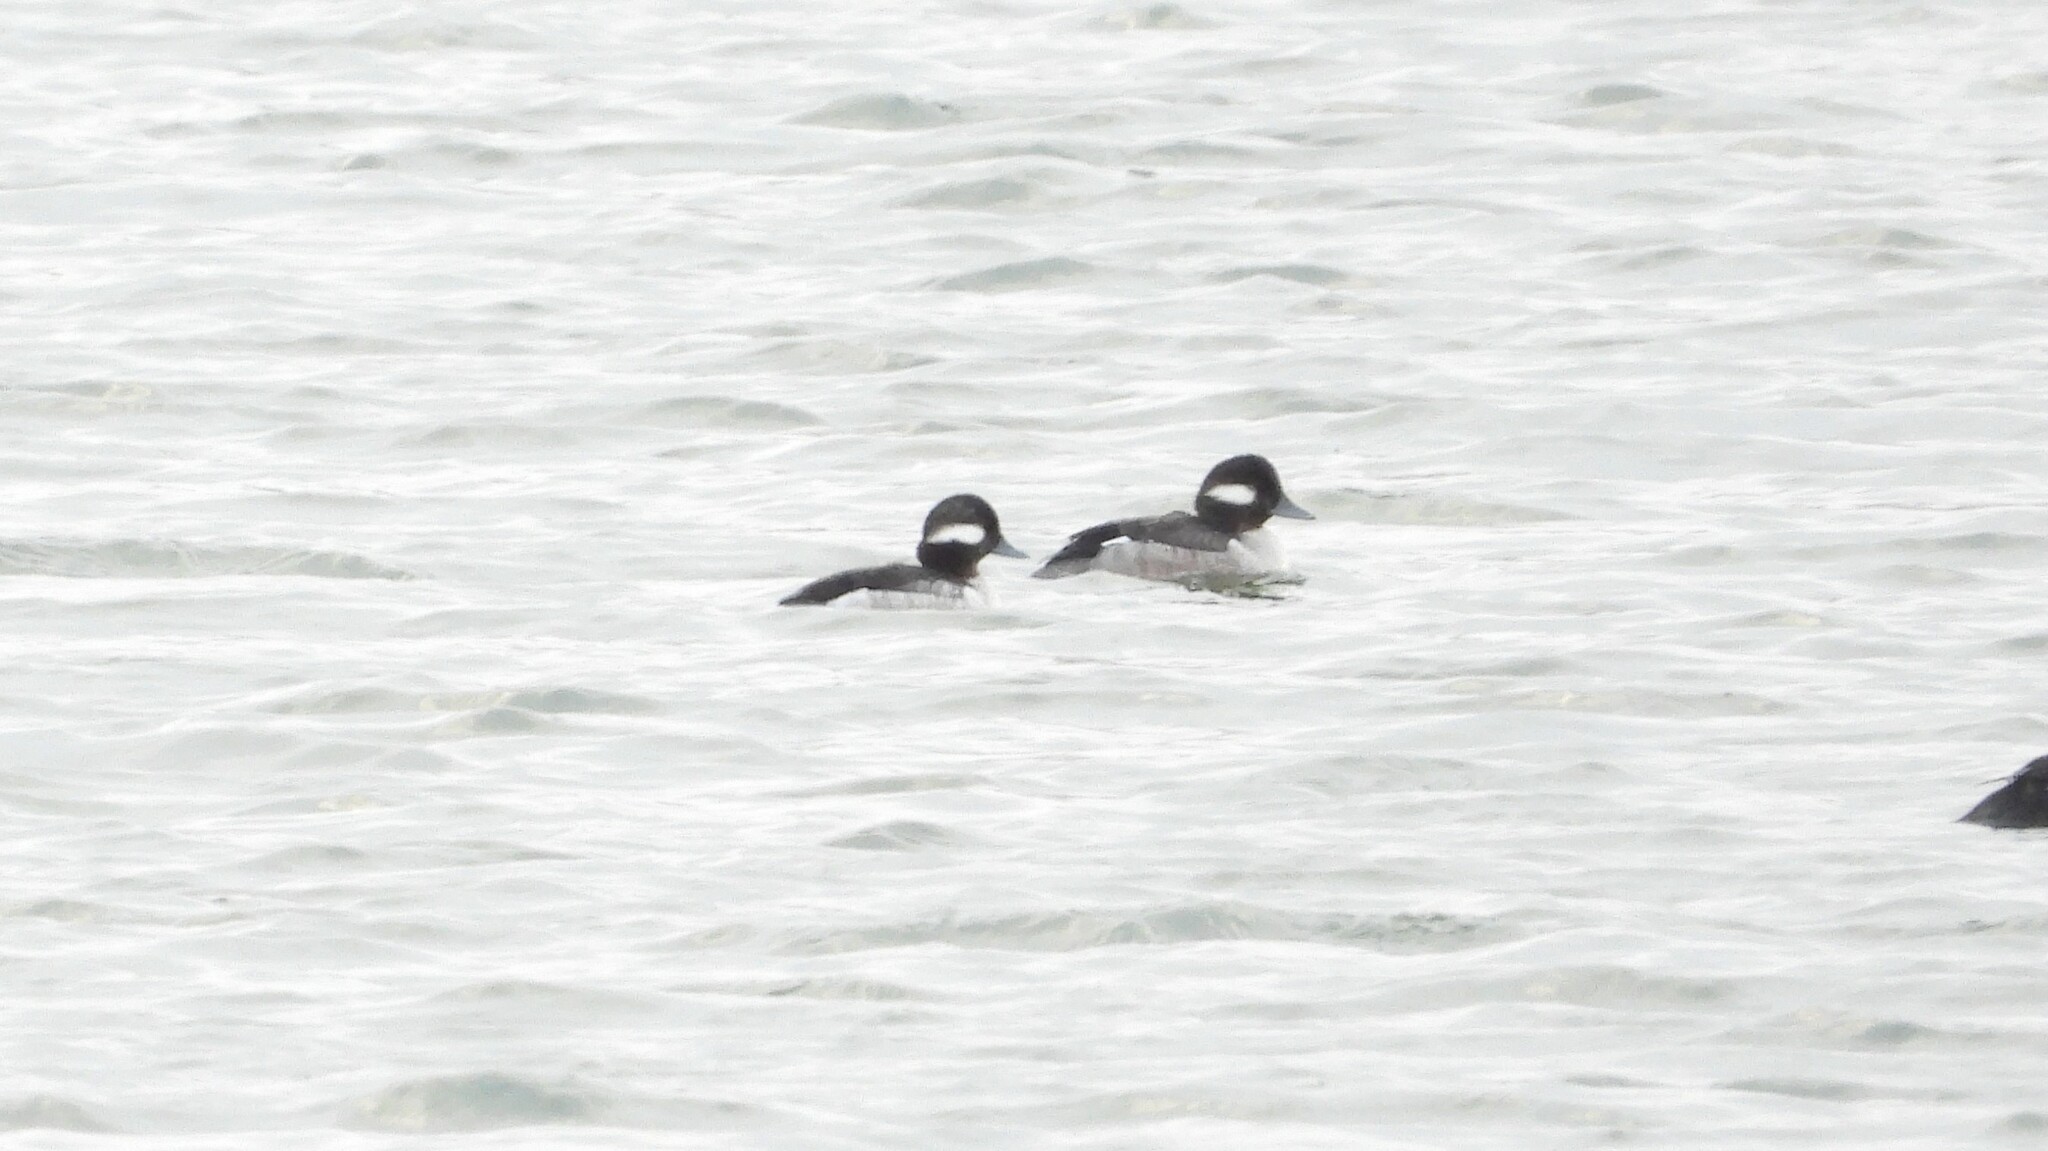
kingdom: Animalia
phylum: Chordata
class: Aves
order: Anseriformes
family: Anatidae
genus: Bucephala
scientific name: Bucephala albeola
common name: Bufflehead
